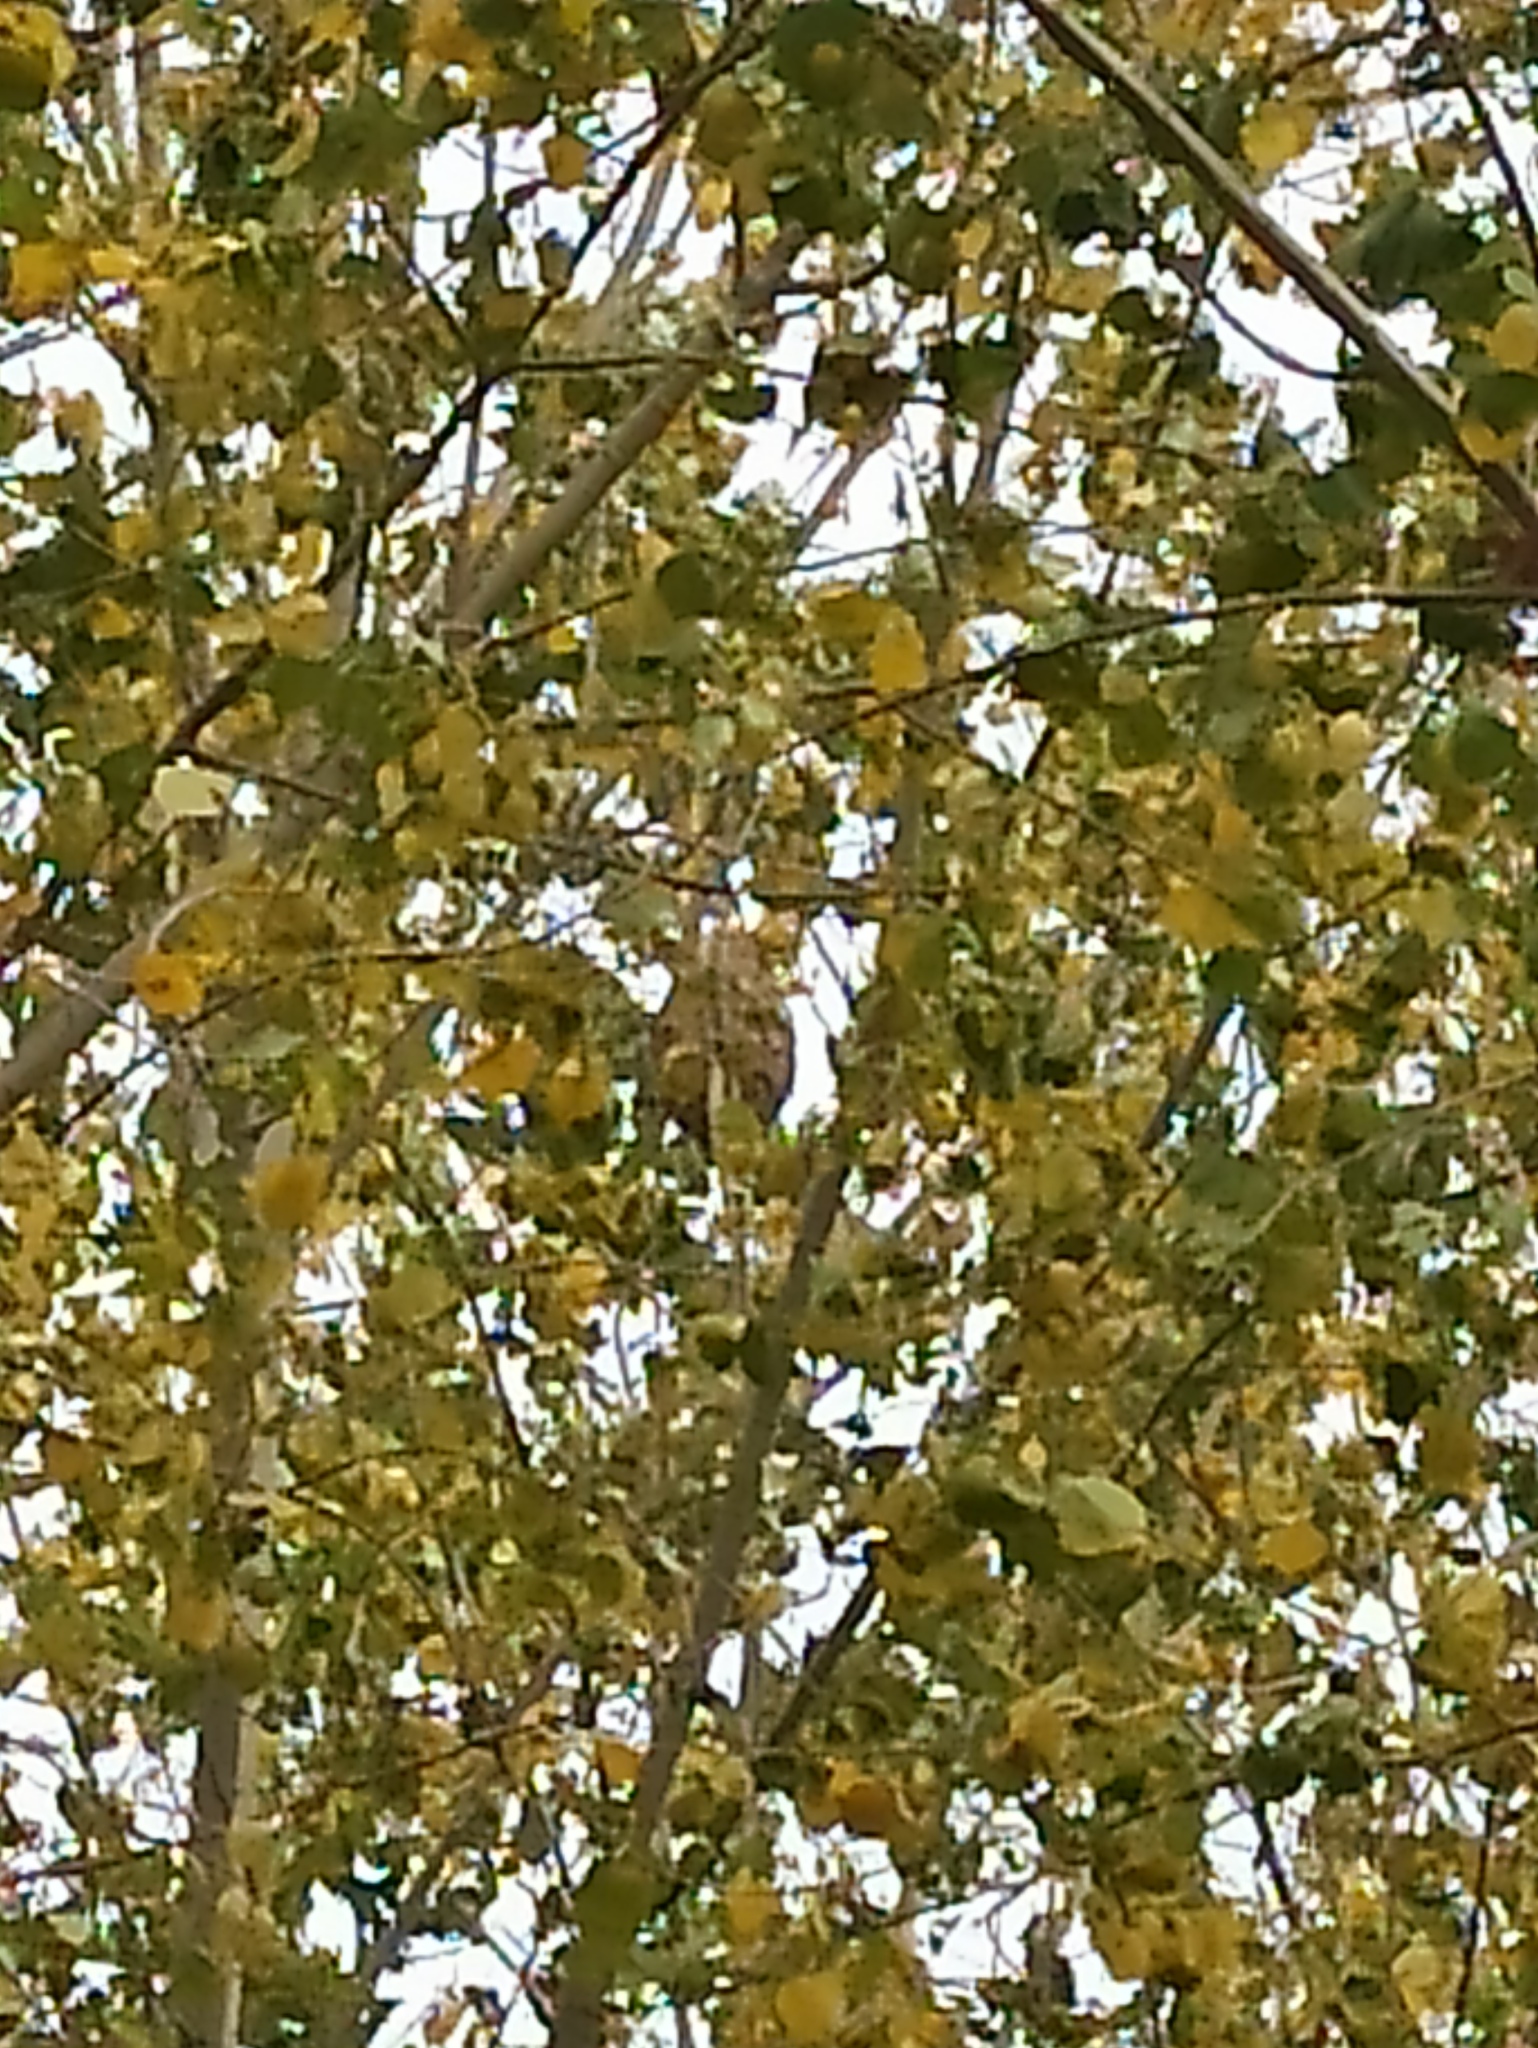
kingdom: Animalia
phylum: Arthropoda
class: Insecta
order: Hymenoptera
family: Vespidae
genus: Vespa
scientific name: Vespa velutina
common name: Asian hornet
